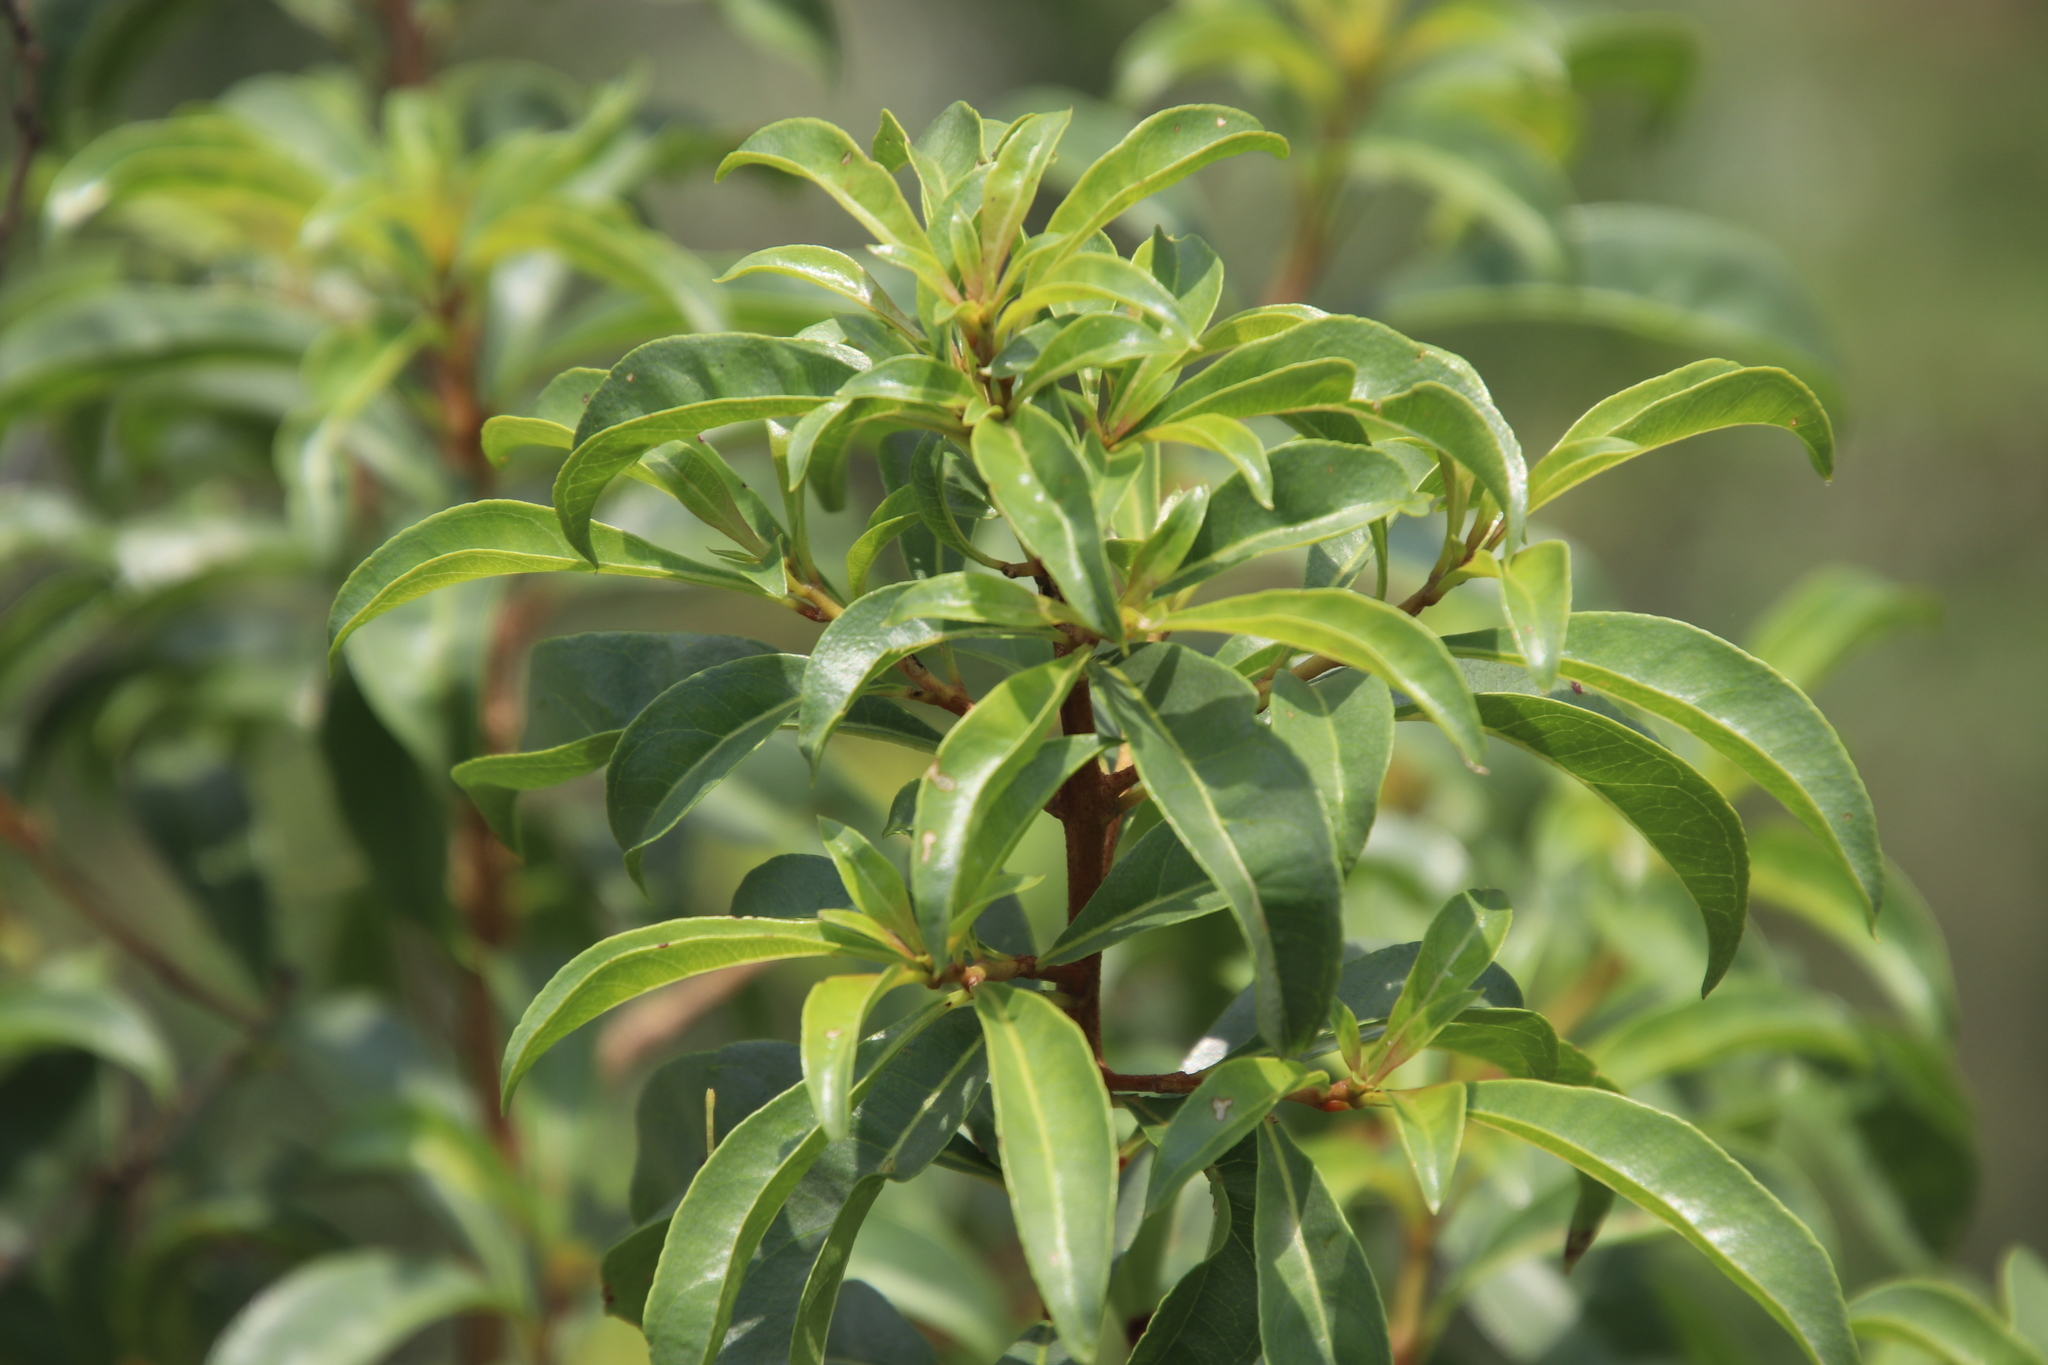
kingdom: Plantae
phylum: Tracheophyta
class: Magnoliopsida
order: Myrtales
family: Myrtaceae
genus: Heteropyxis
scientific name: Heteropyxis natalensis
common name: Lavender tree
